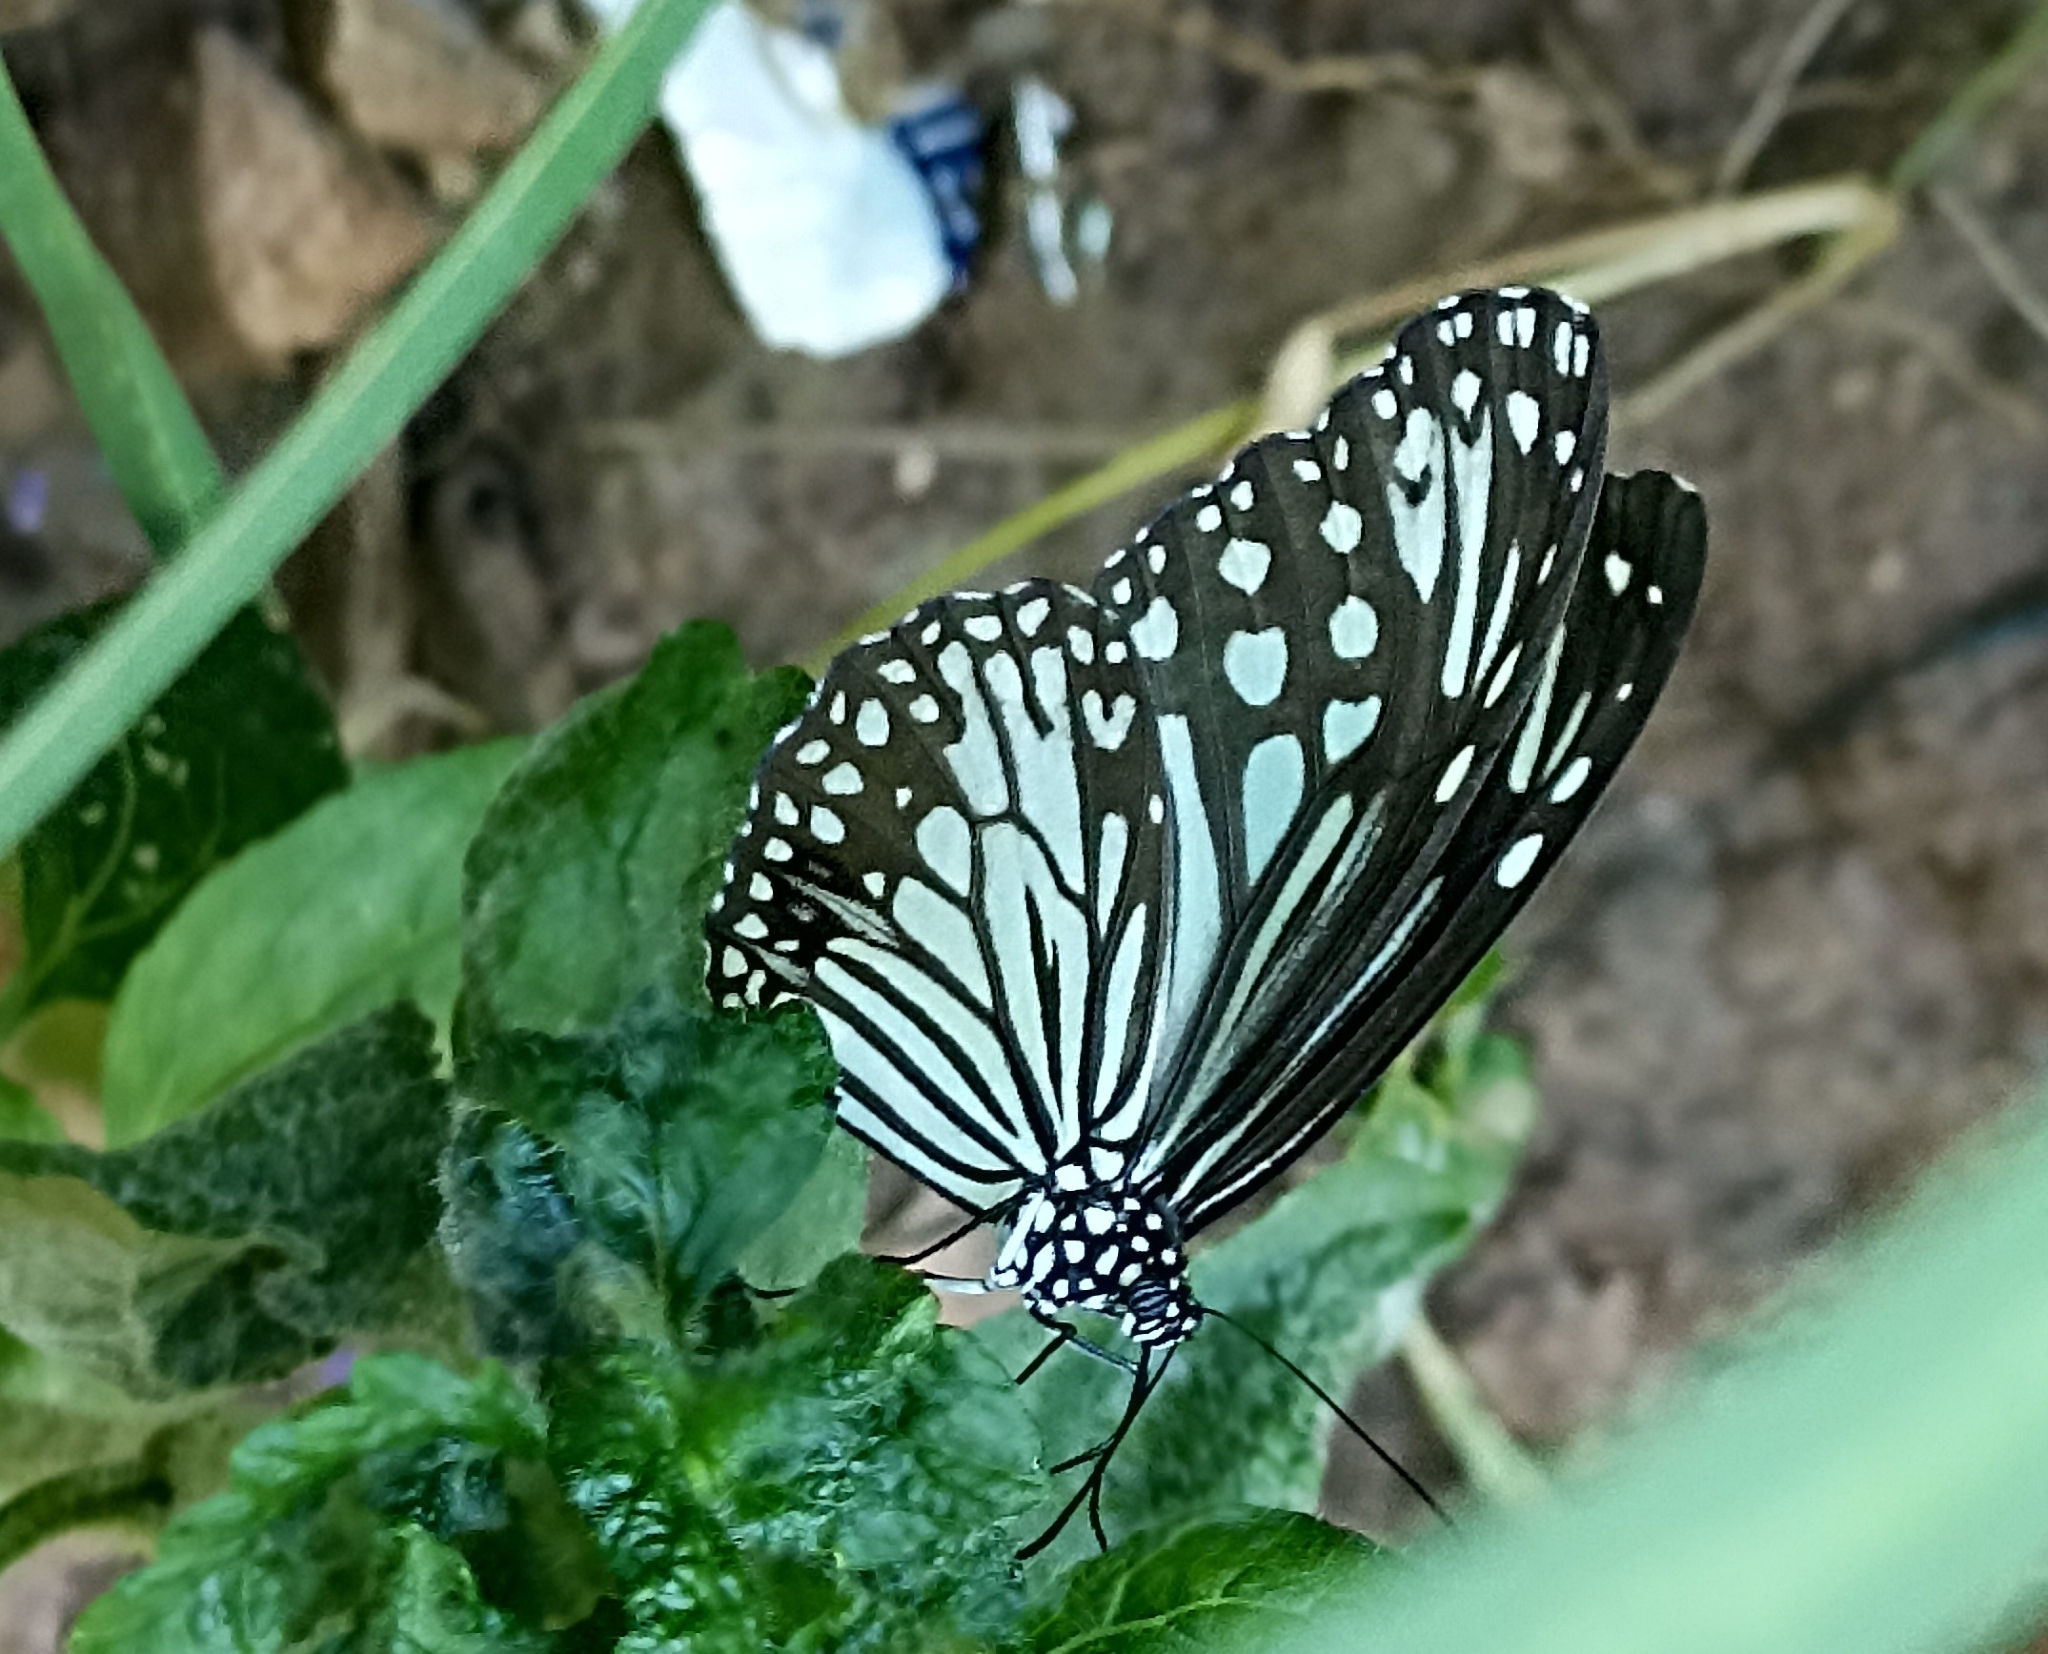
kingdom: Animalia
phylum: Arthropoda
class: Insecta
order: Lepidoptera
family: Nymphalidae
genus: Parantica
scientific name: Parantica aglea
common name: Glassy tiger
